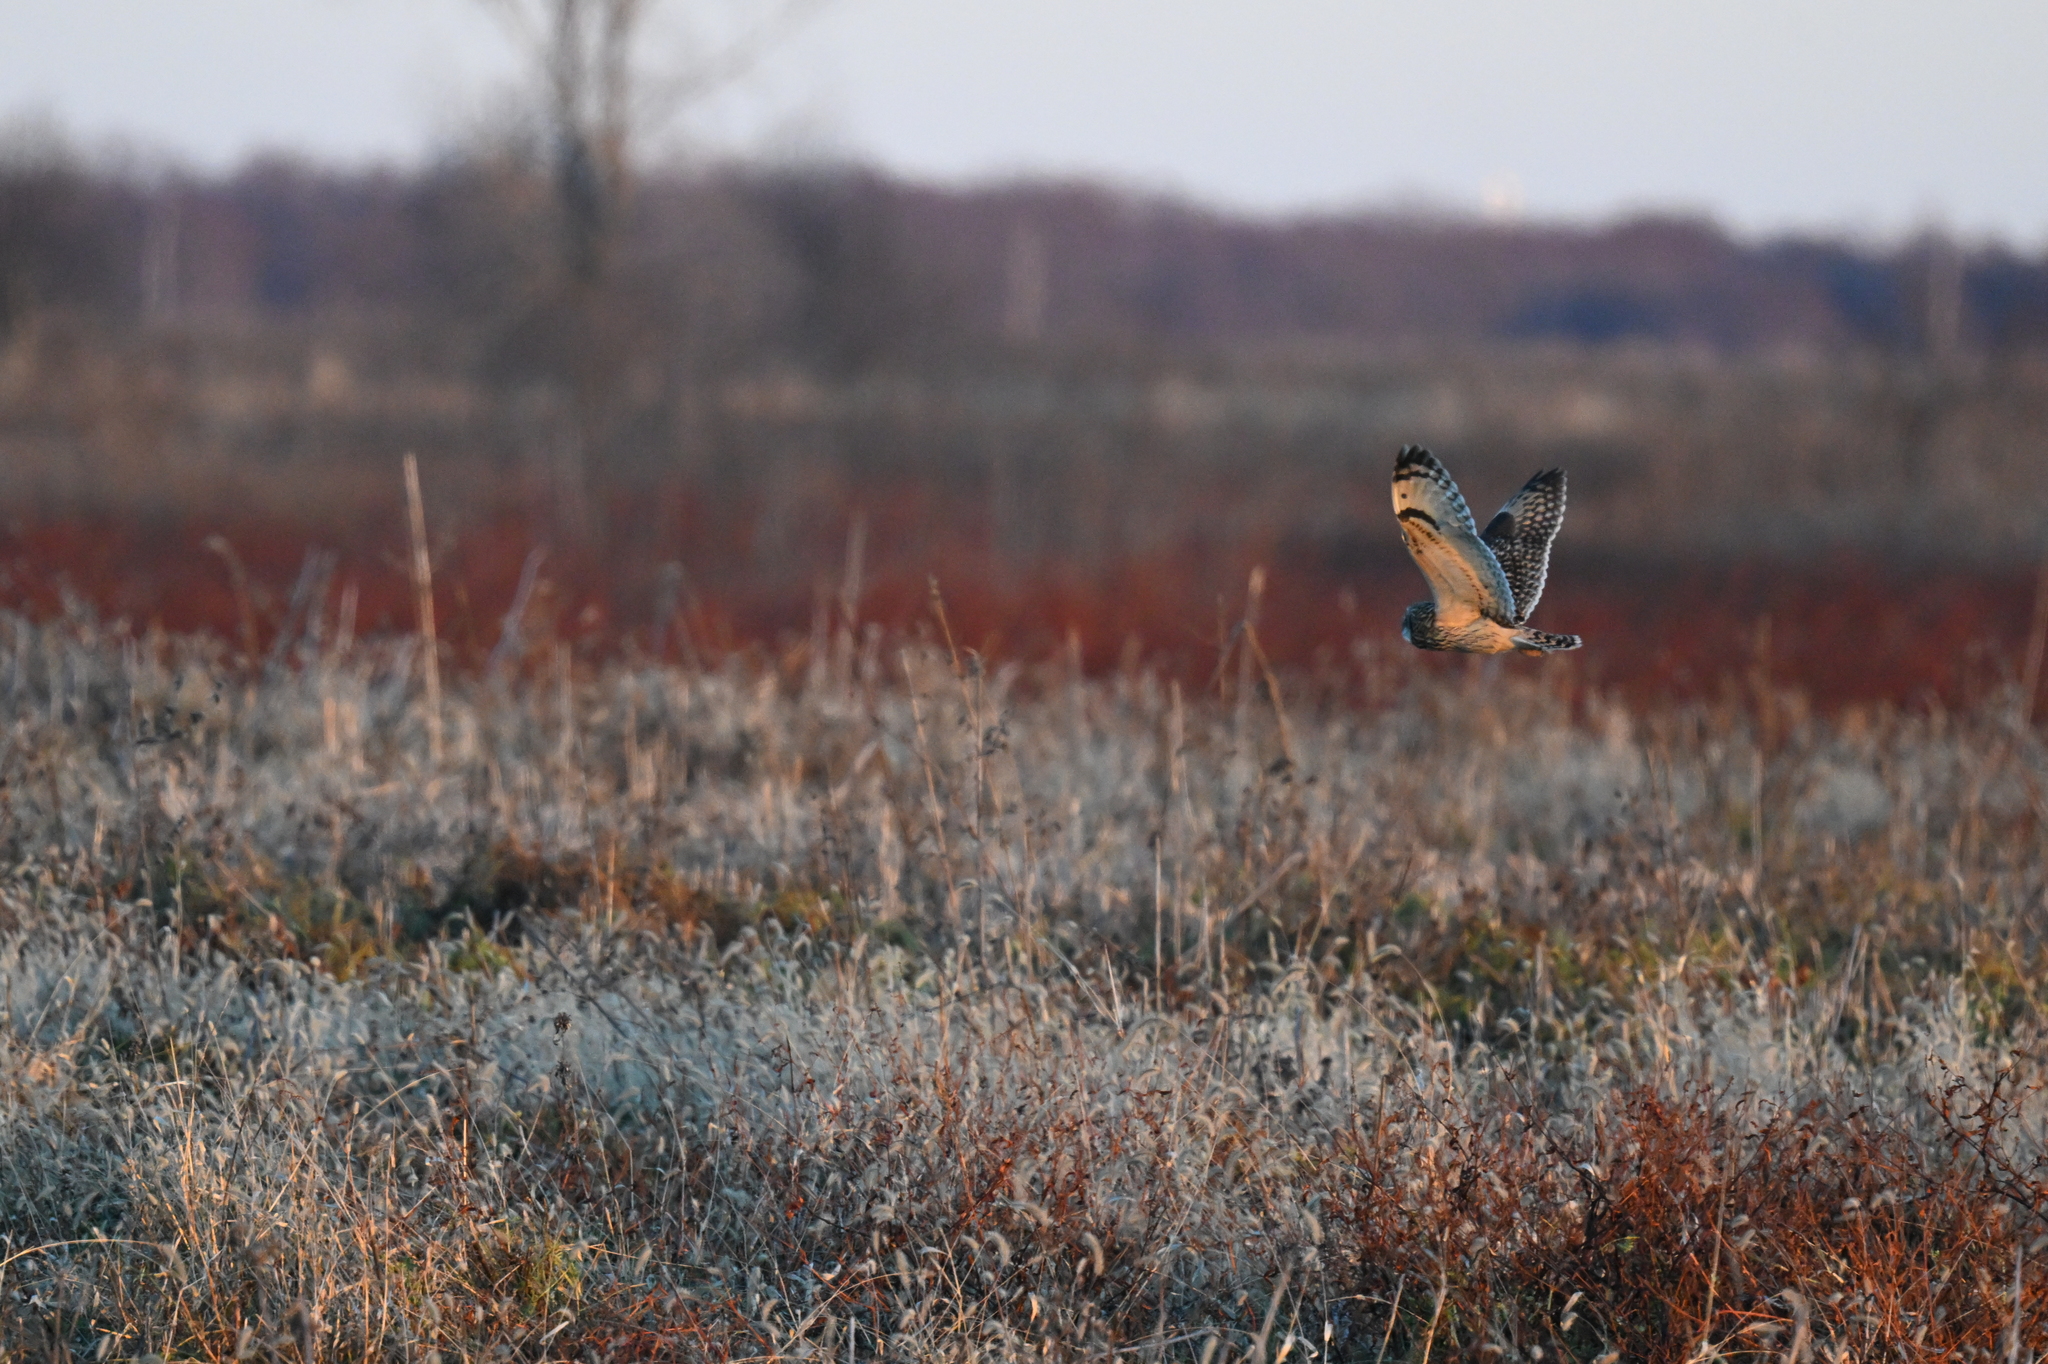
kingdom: Animalia
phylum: Chordata
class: Aves
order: Strigiformes
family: Strigidae
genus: Asio
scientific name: Asio flammeus
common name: Short-eared owl
